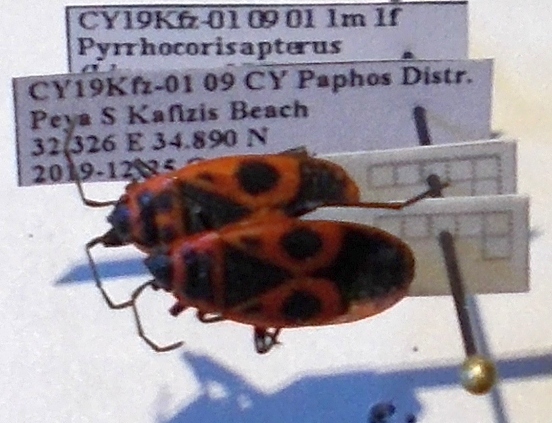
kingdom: Animalia
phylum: Arthropoda
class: Insecta
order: Hemiptera
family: Pyrrhocoridae
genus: Pyrrhocoris
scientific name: Pyrrhocoris apterus
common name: Firebug
